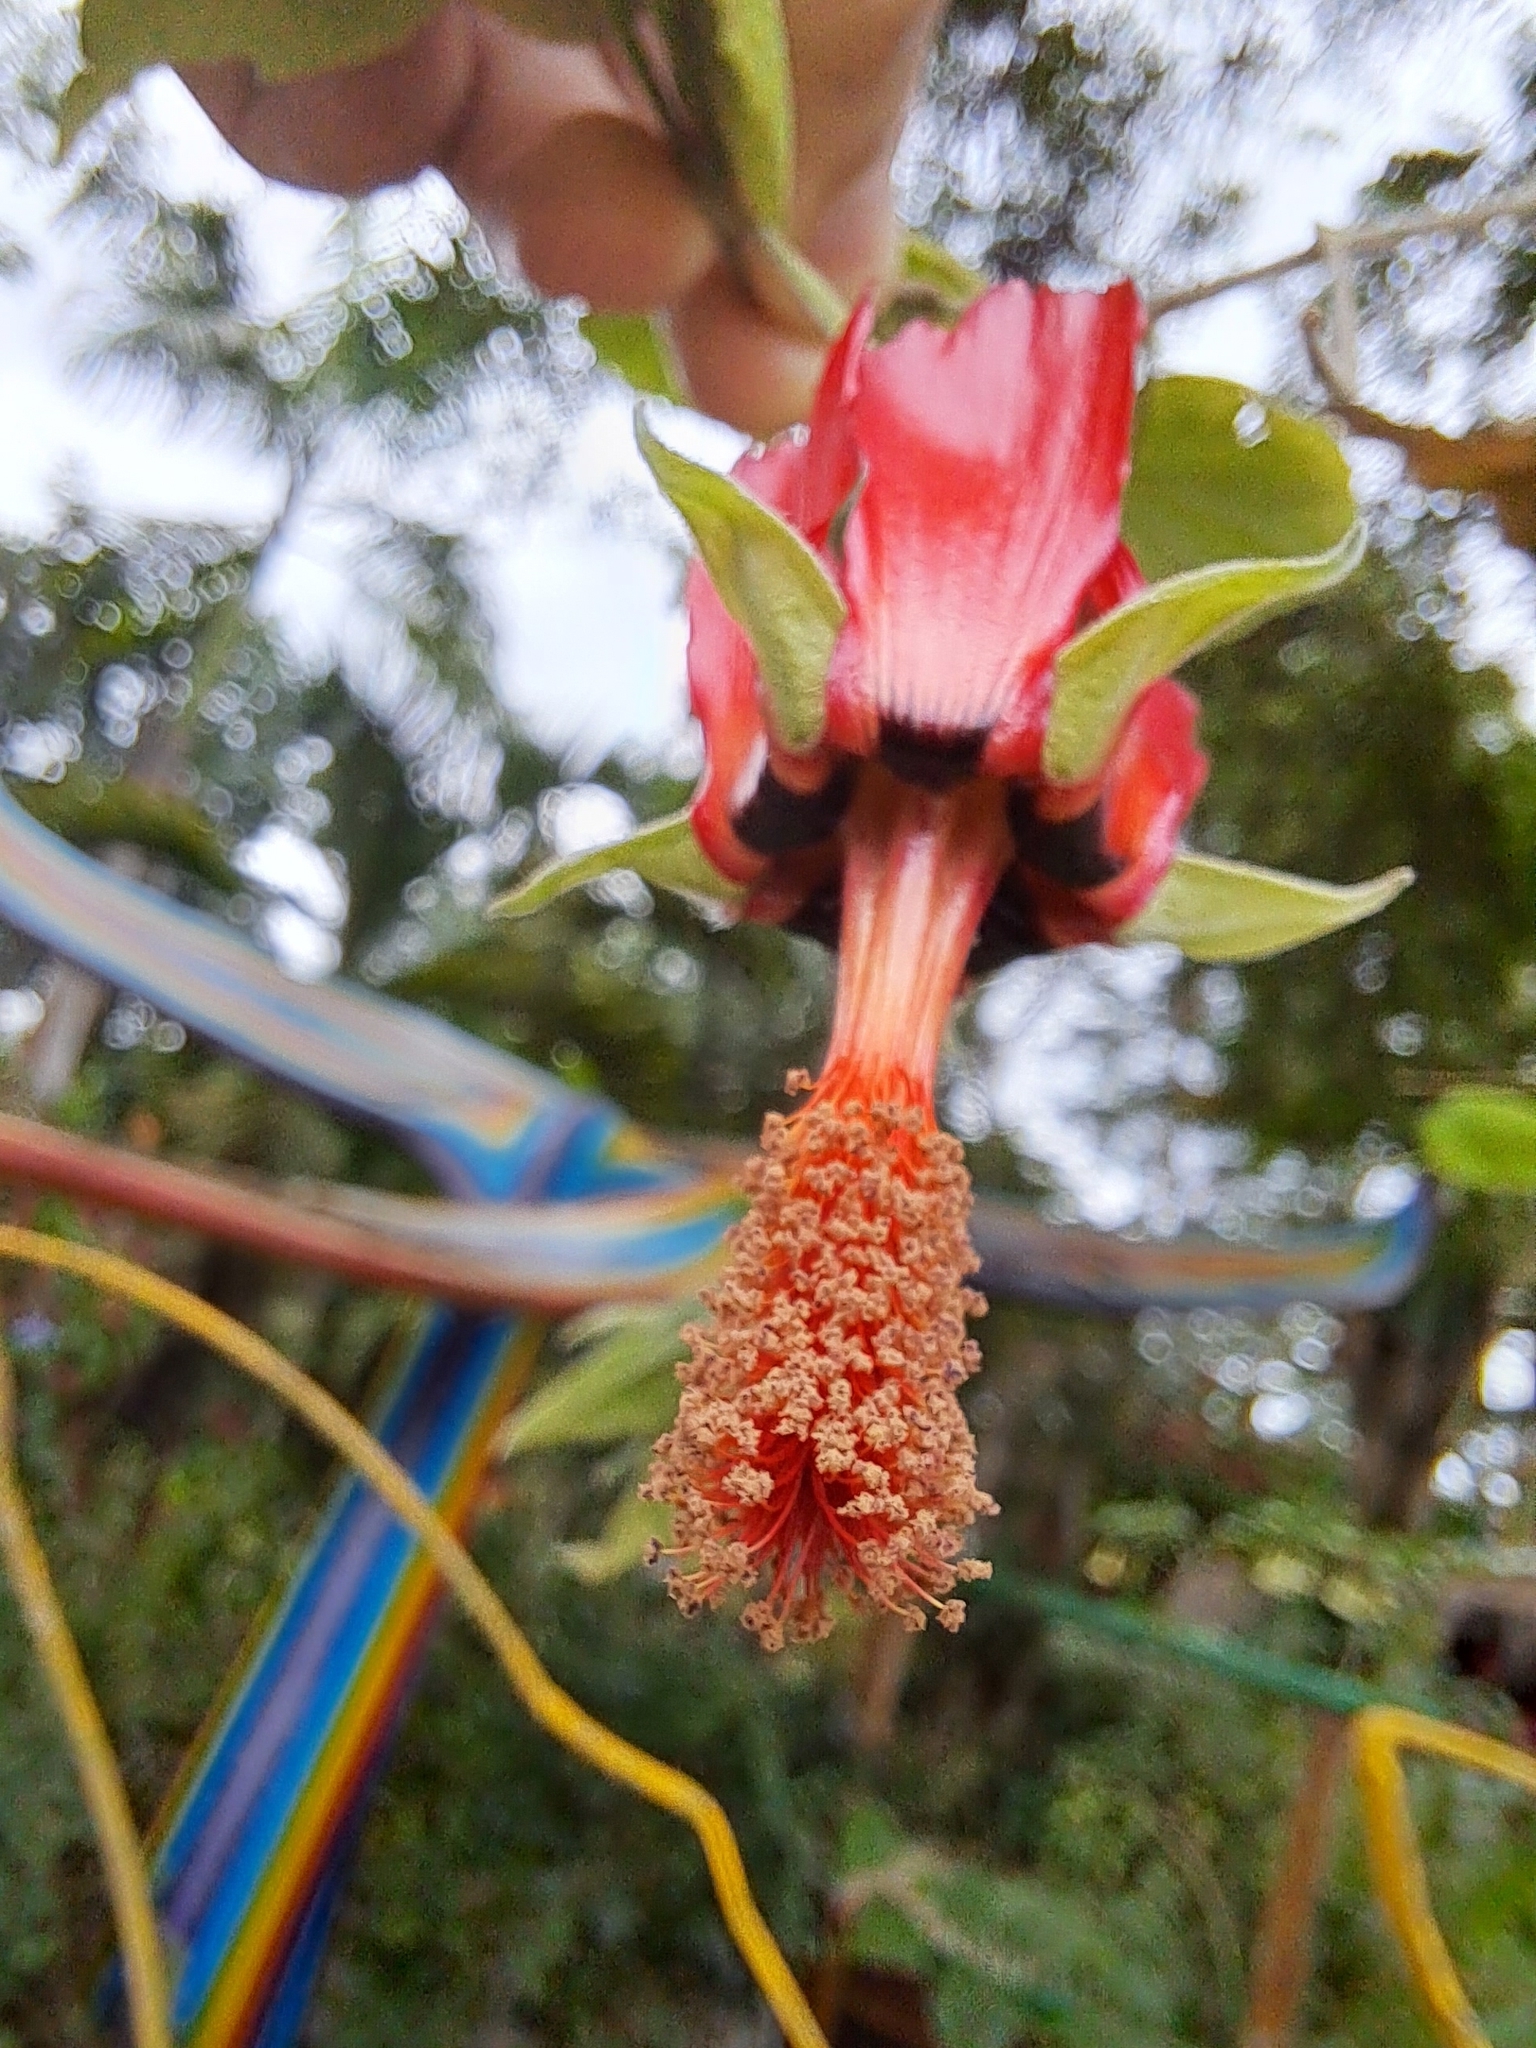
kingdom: Plantae
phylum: Tracheophyta
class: Magnoliopsida
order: Malvales
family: Malvaceae
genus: Abutilon
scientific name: Abutilon reflexum
